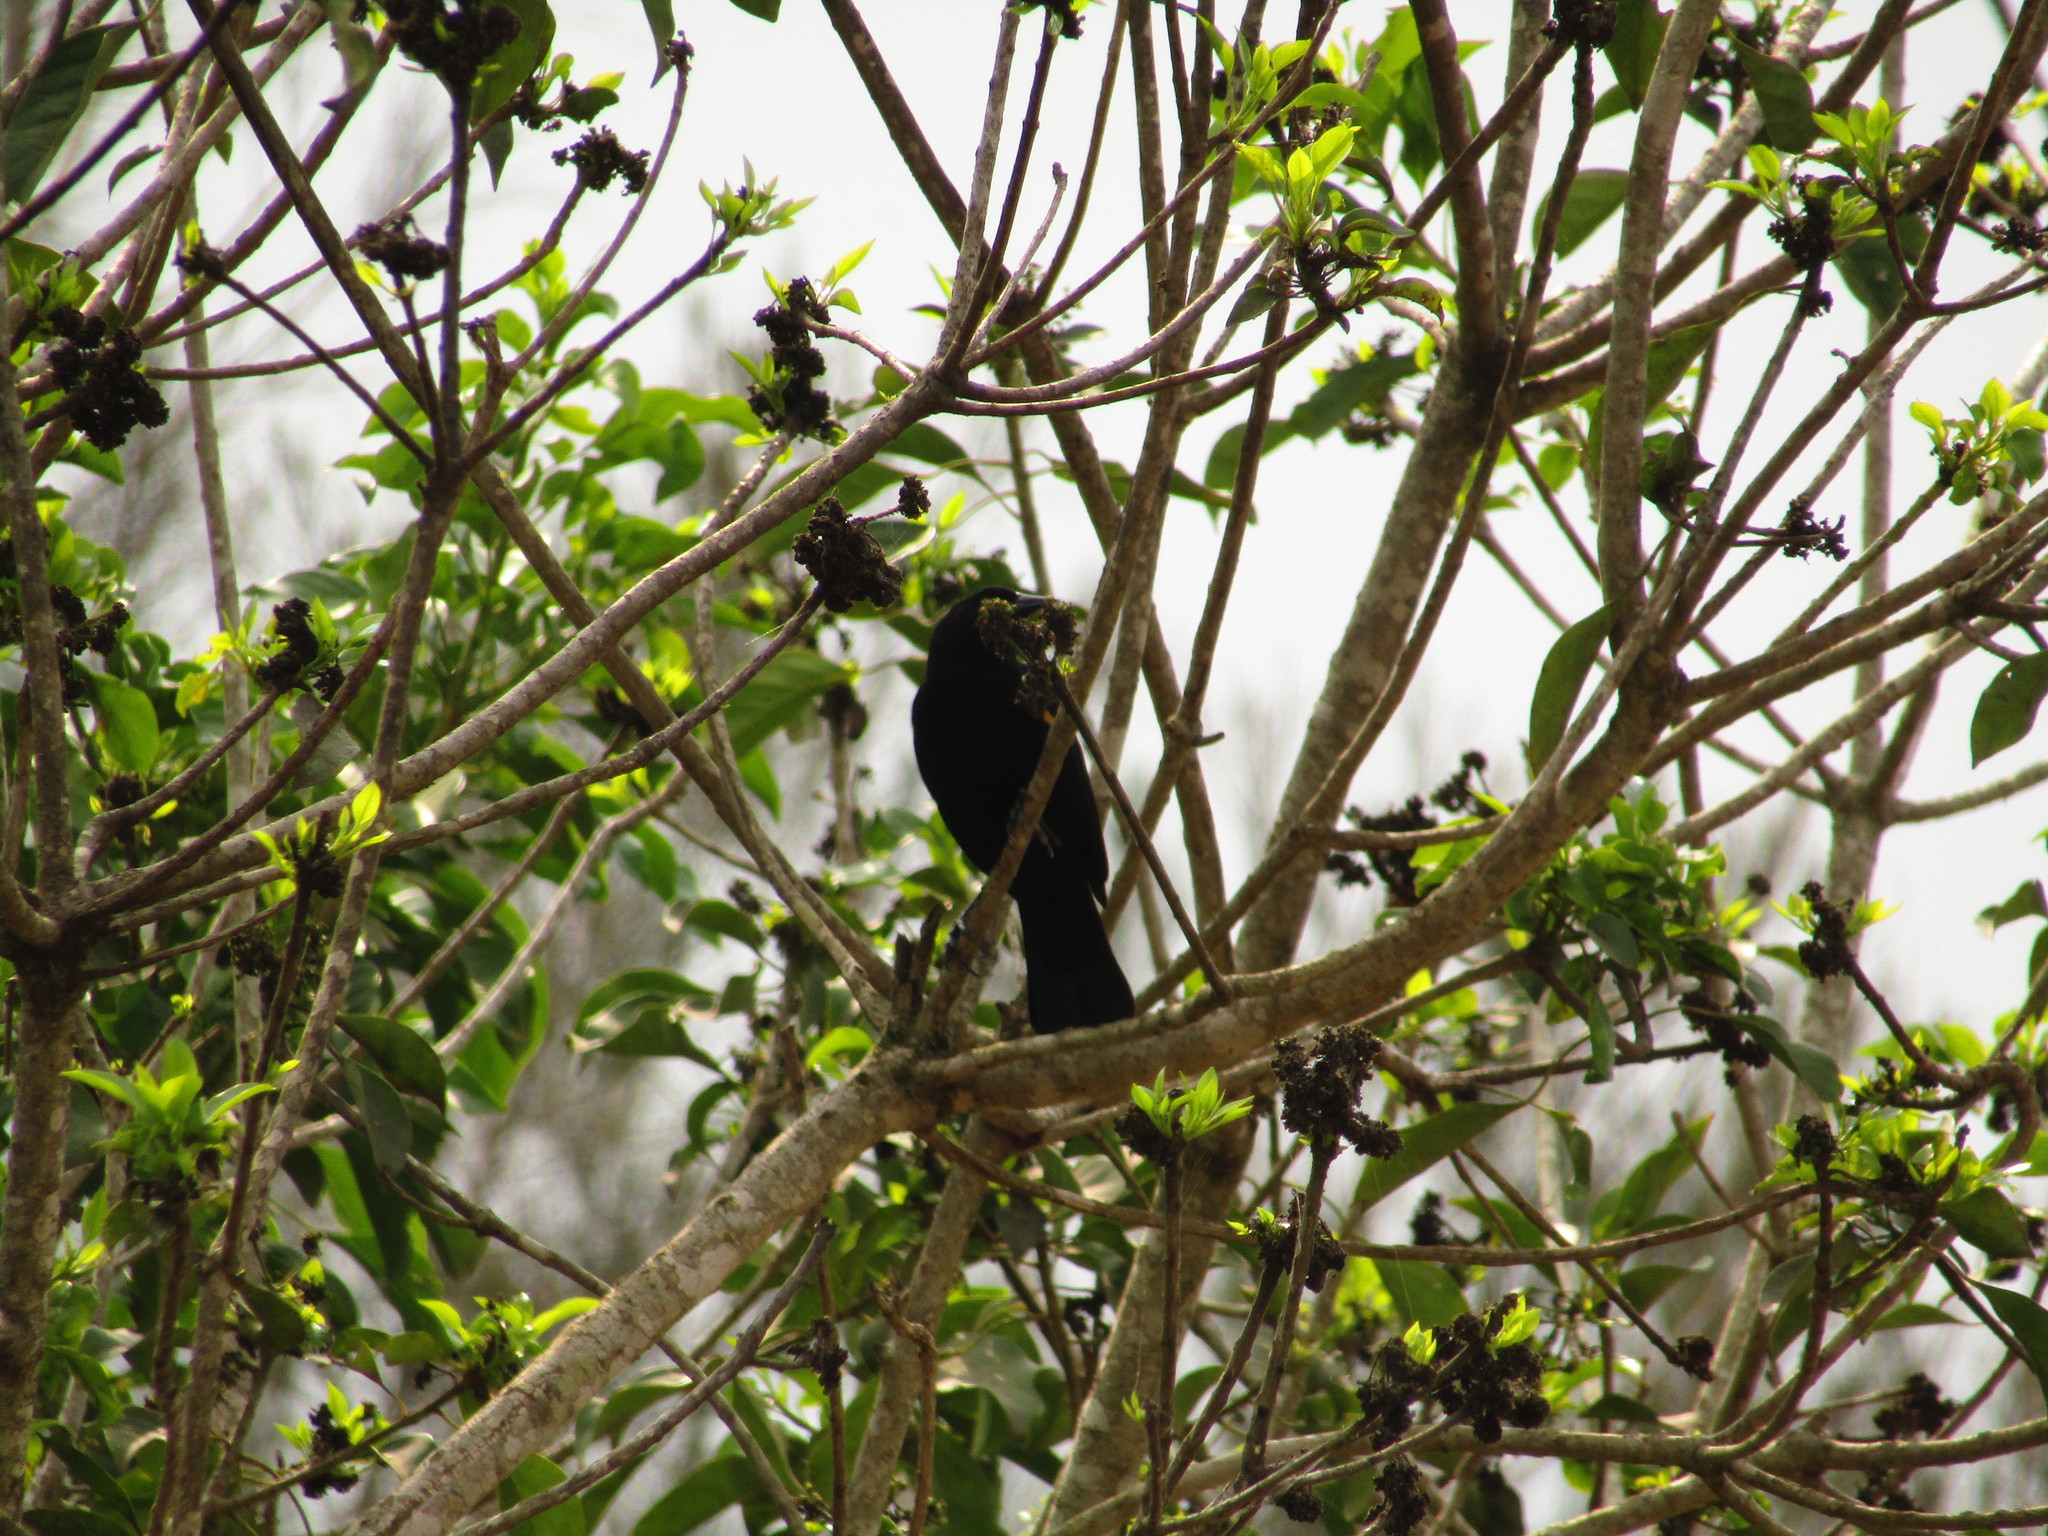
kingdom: Animalia
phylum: Chordata
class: Aves
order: Passeriformes
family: Icteridae
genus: Agelaius
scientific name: Agelaius phoeniceus
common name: Red-winged blackbird
